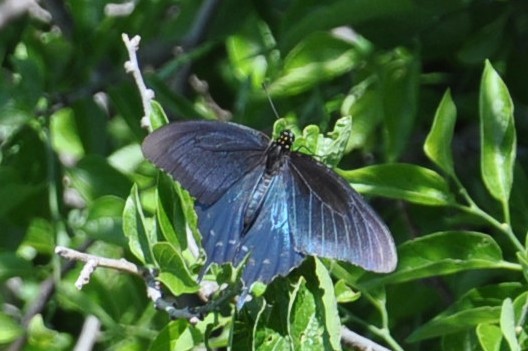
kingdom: Animalia
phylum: Arthropoda
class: Insecta
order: Lepidoptera
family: Papilionidae
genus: Battus
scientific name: Battus philenor
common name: Pipevine swallowtail
